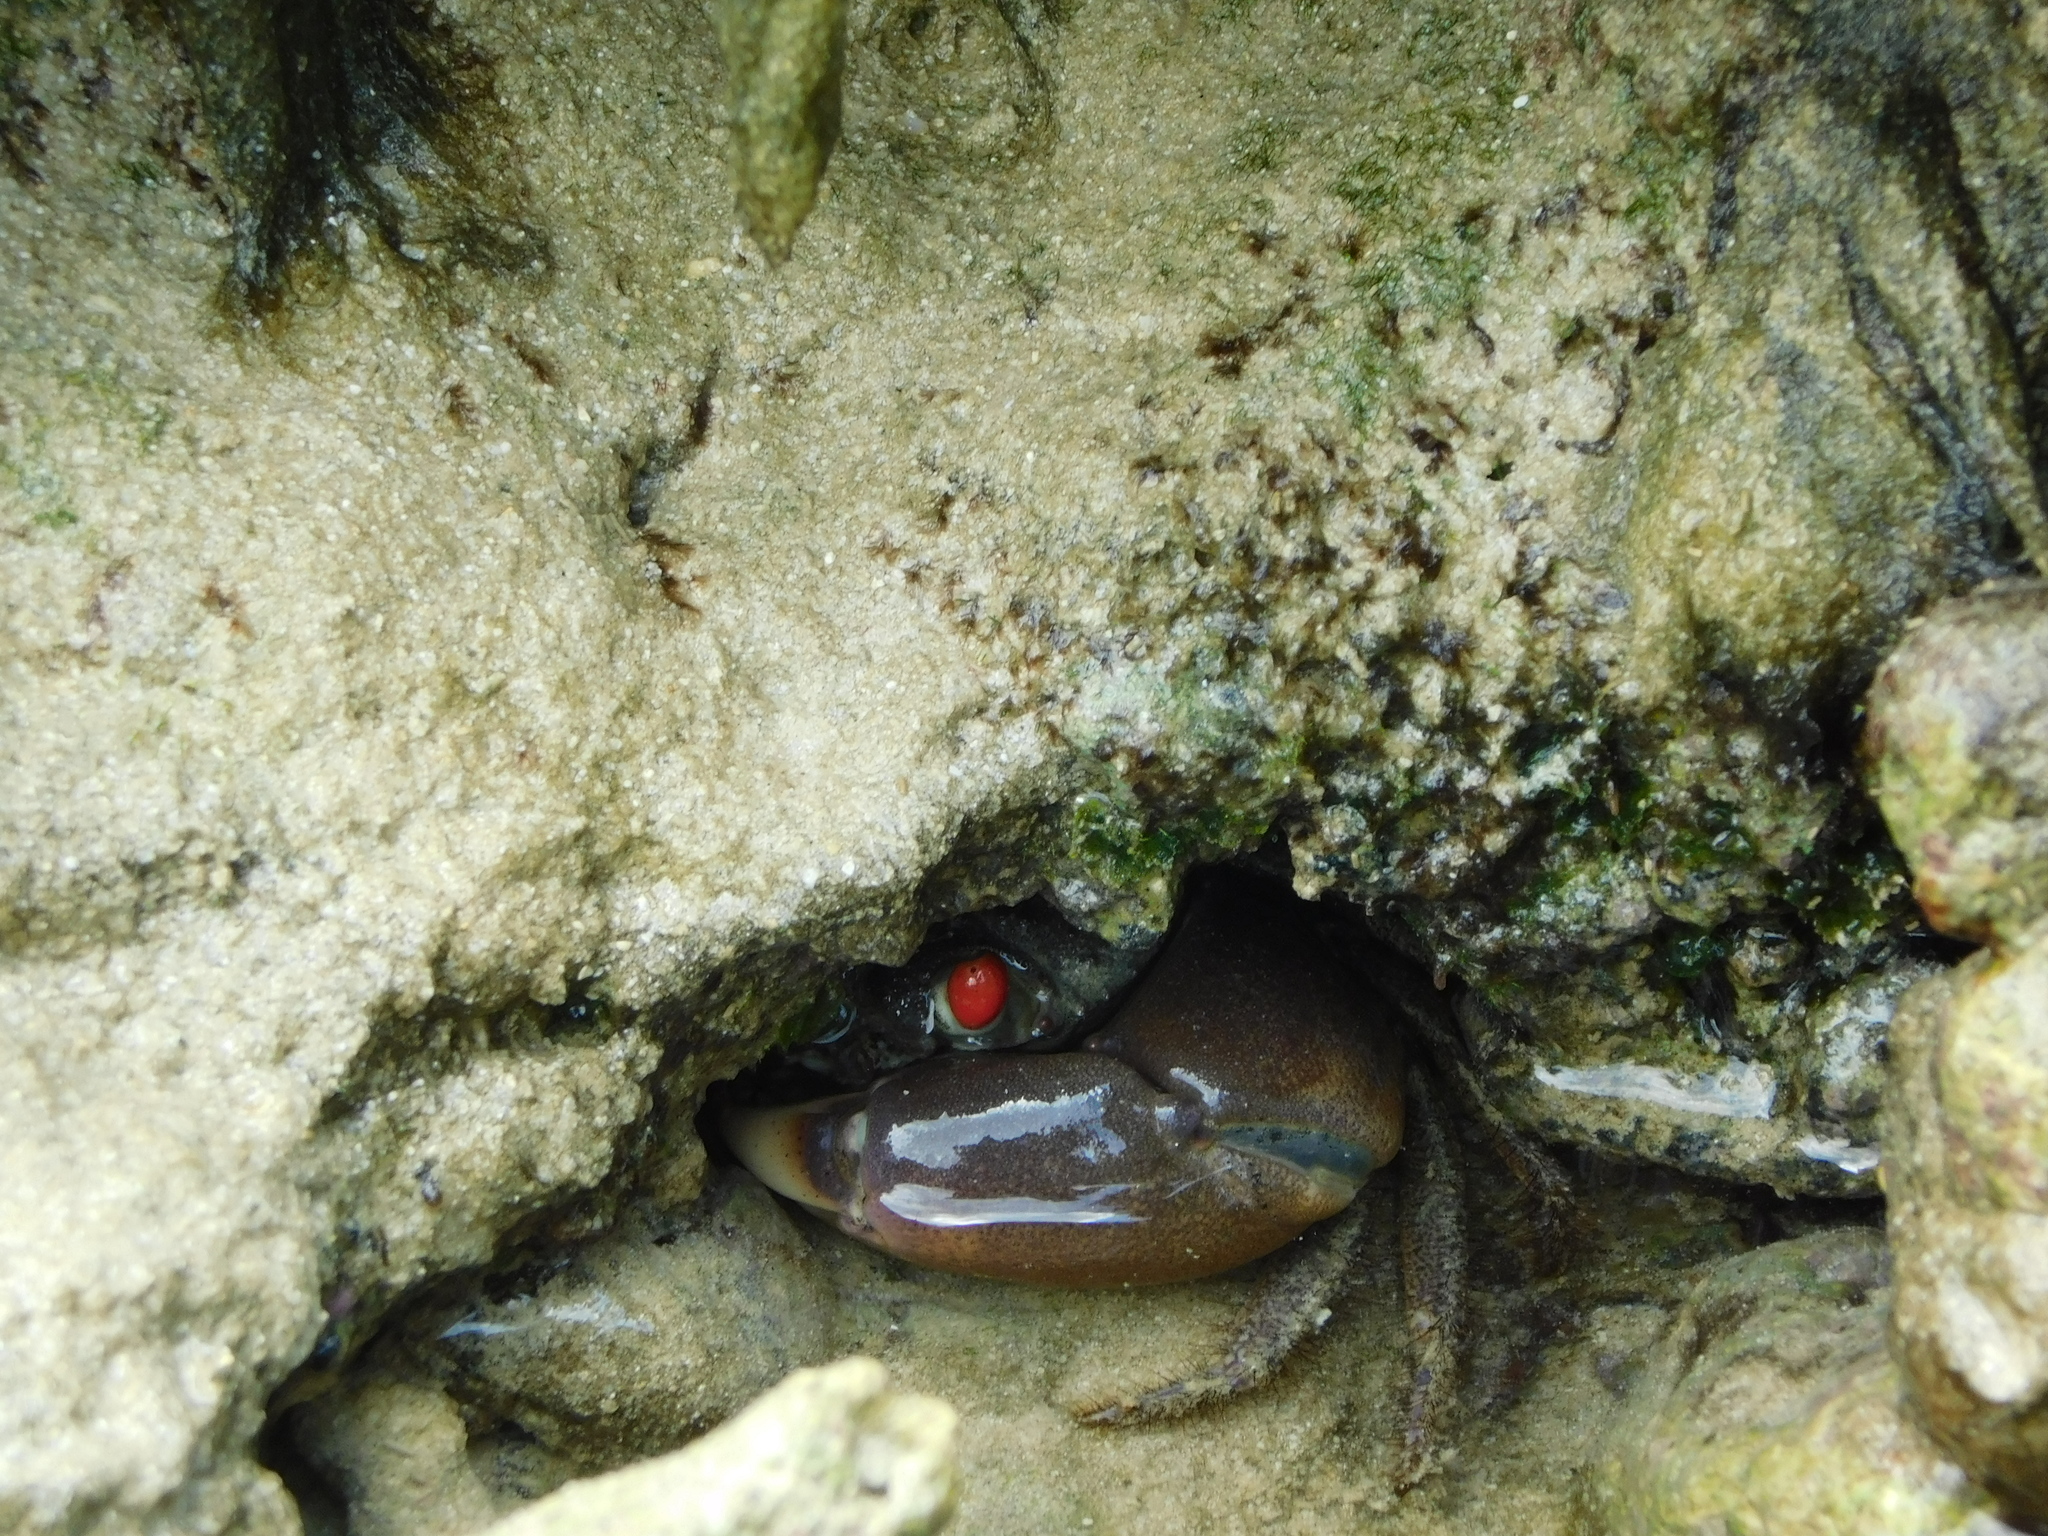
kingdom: Animalia
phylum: Arthropoda
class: Malacostraca
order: Decapoda
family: Eriphiidae
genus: Eriphia
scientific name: Eriphia sebana
